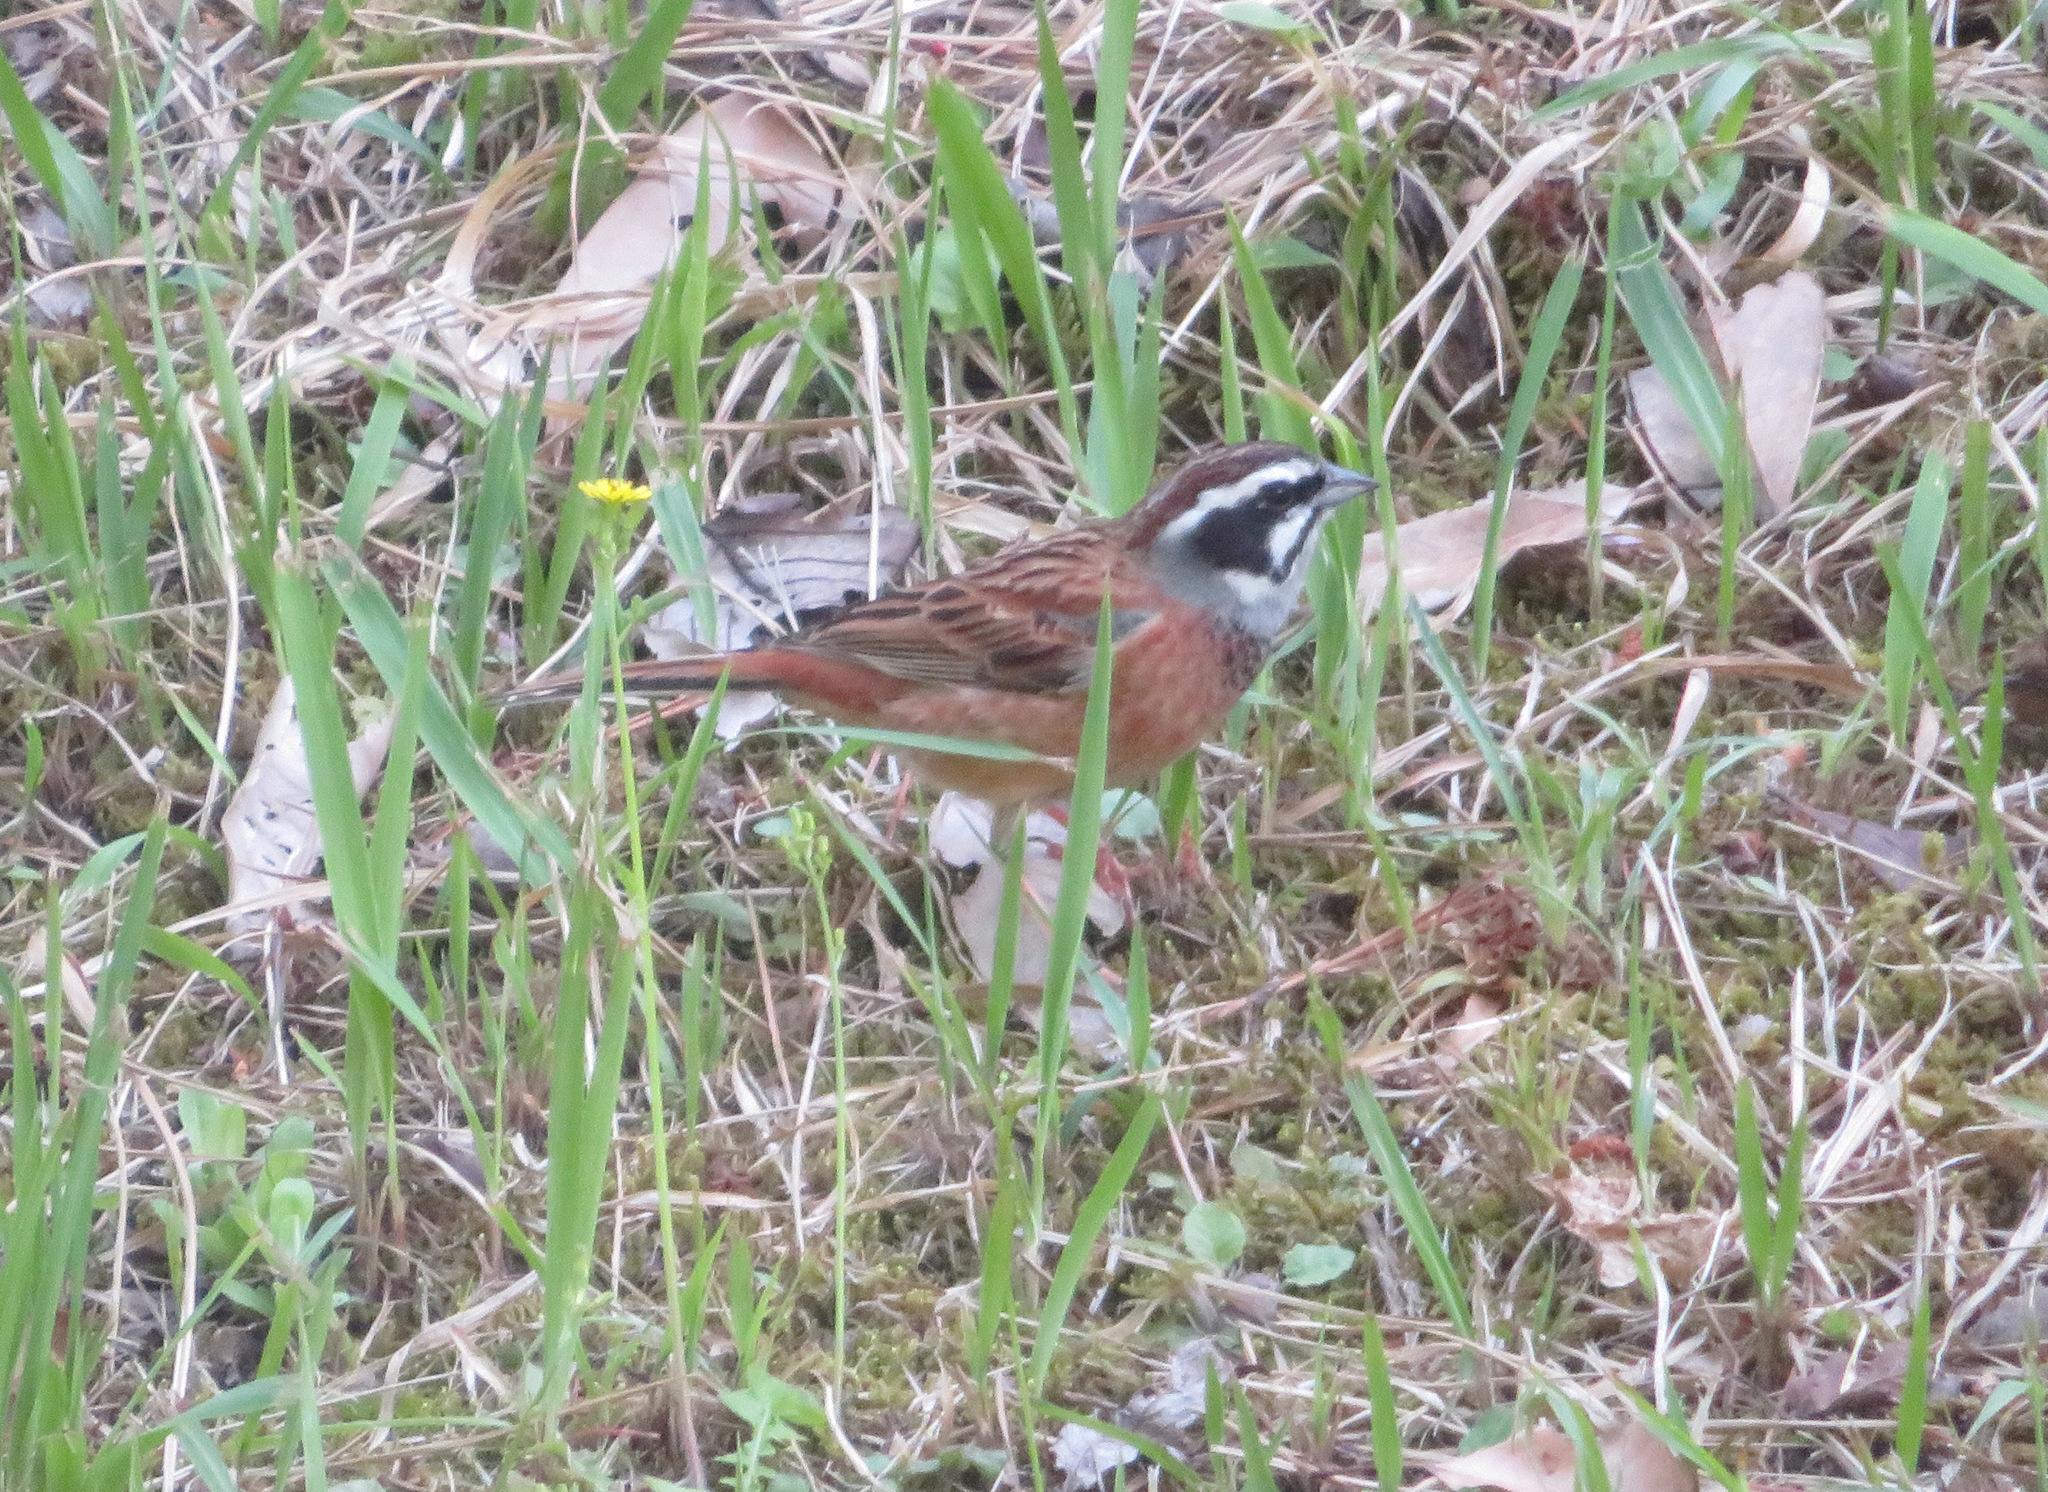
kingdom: Animalia
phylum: Chordata
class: Aves
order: Passeriformes
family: Emberizidae
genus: Emberiza
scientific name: Emberiza cioides
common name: Meadow bunting
